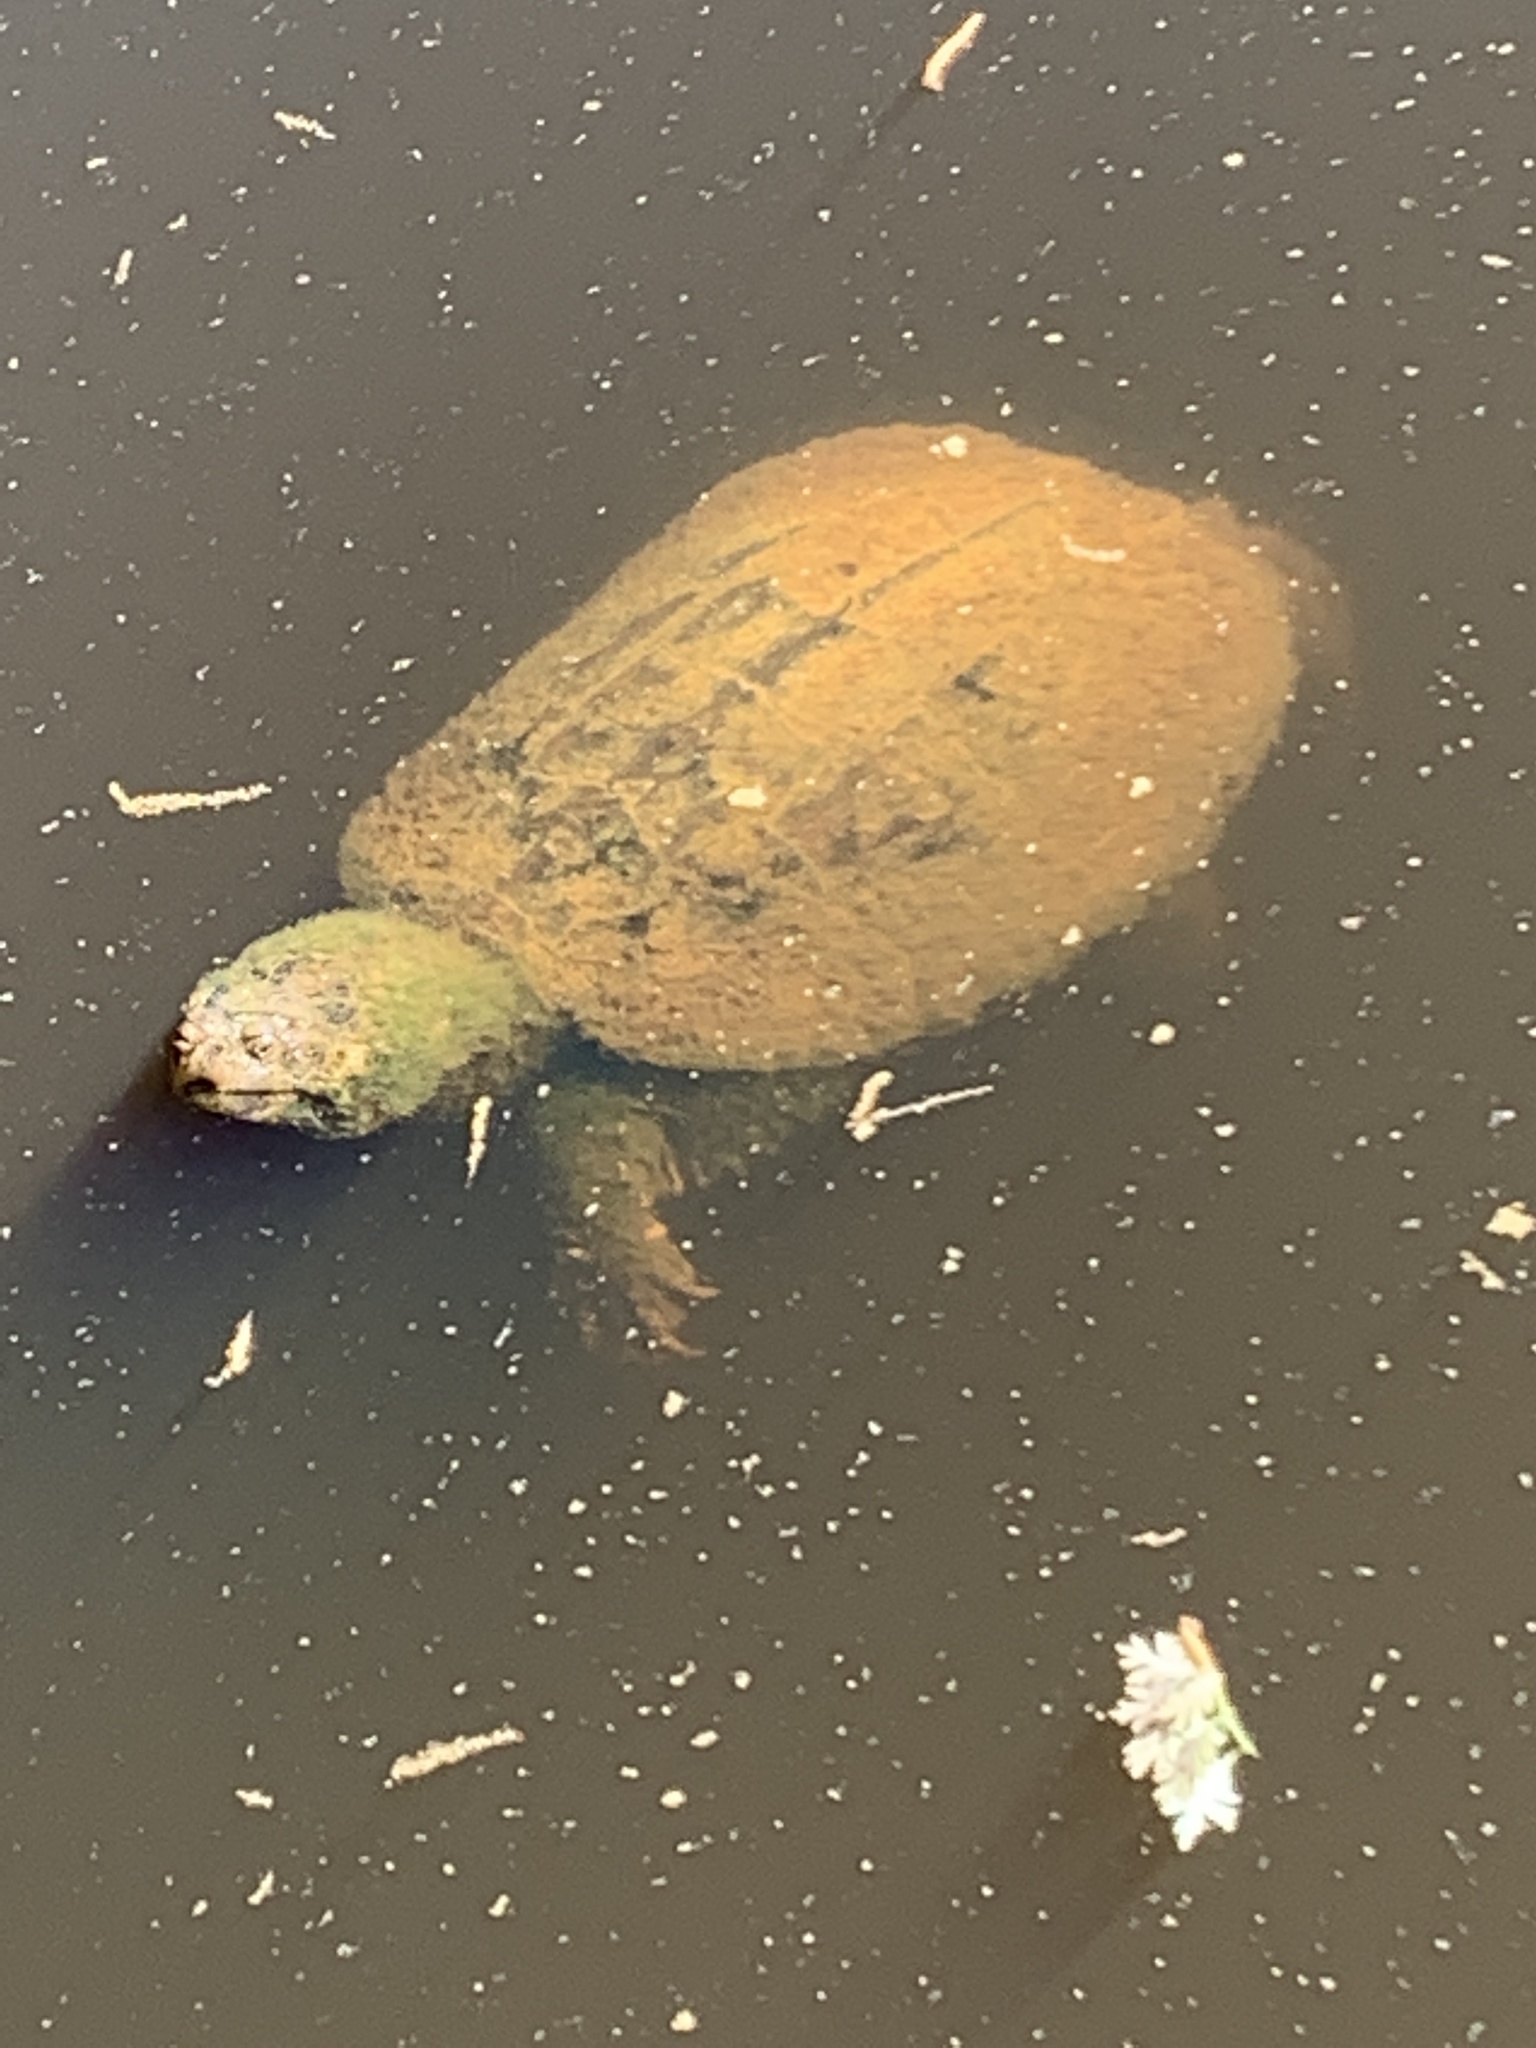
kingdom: Animalia
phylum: Chordata
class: Testudines
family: Kinosternidae
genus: Sternotherus
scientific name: Sternotherus odoratus
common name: Common musk turtle
